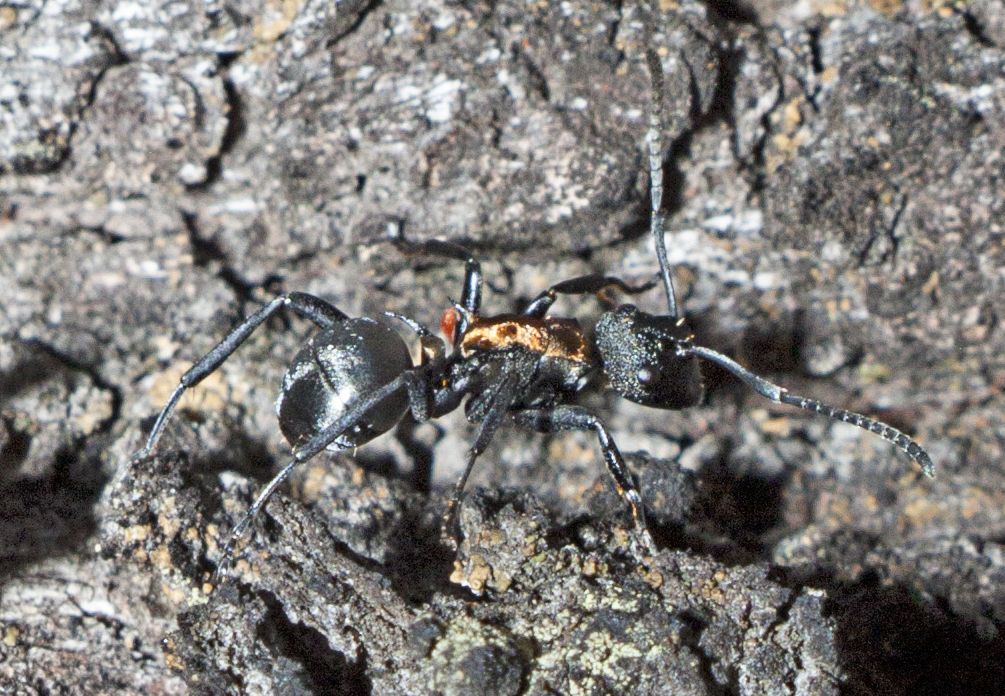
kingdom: Animalia
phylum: Arthropoda
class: Insecta
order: Hymenoptera
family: Formicidae
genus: Polyrhachis
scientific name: Polyrhachis ornata
